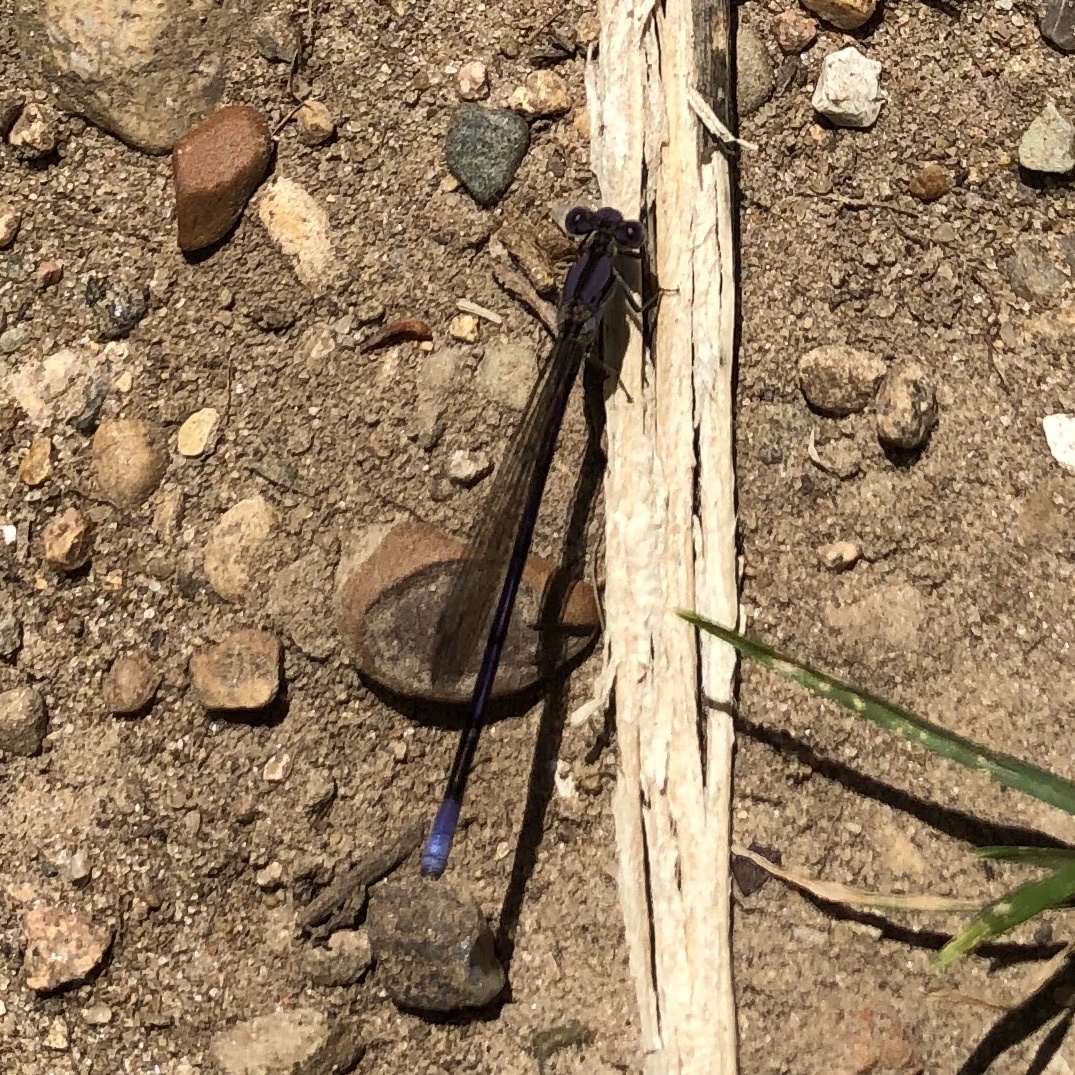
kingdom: Animalia
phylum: Arthropoda
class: Insecta
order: Odonata
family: Coenagrionidae
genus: Argia
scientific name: Argia fumipennis
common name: Variable dancer
